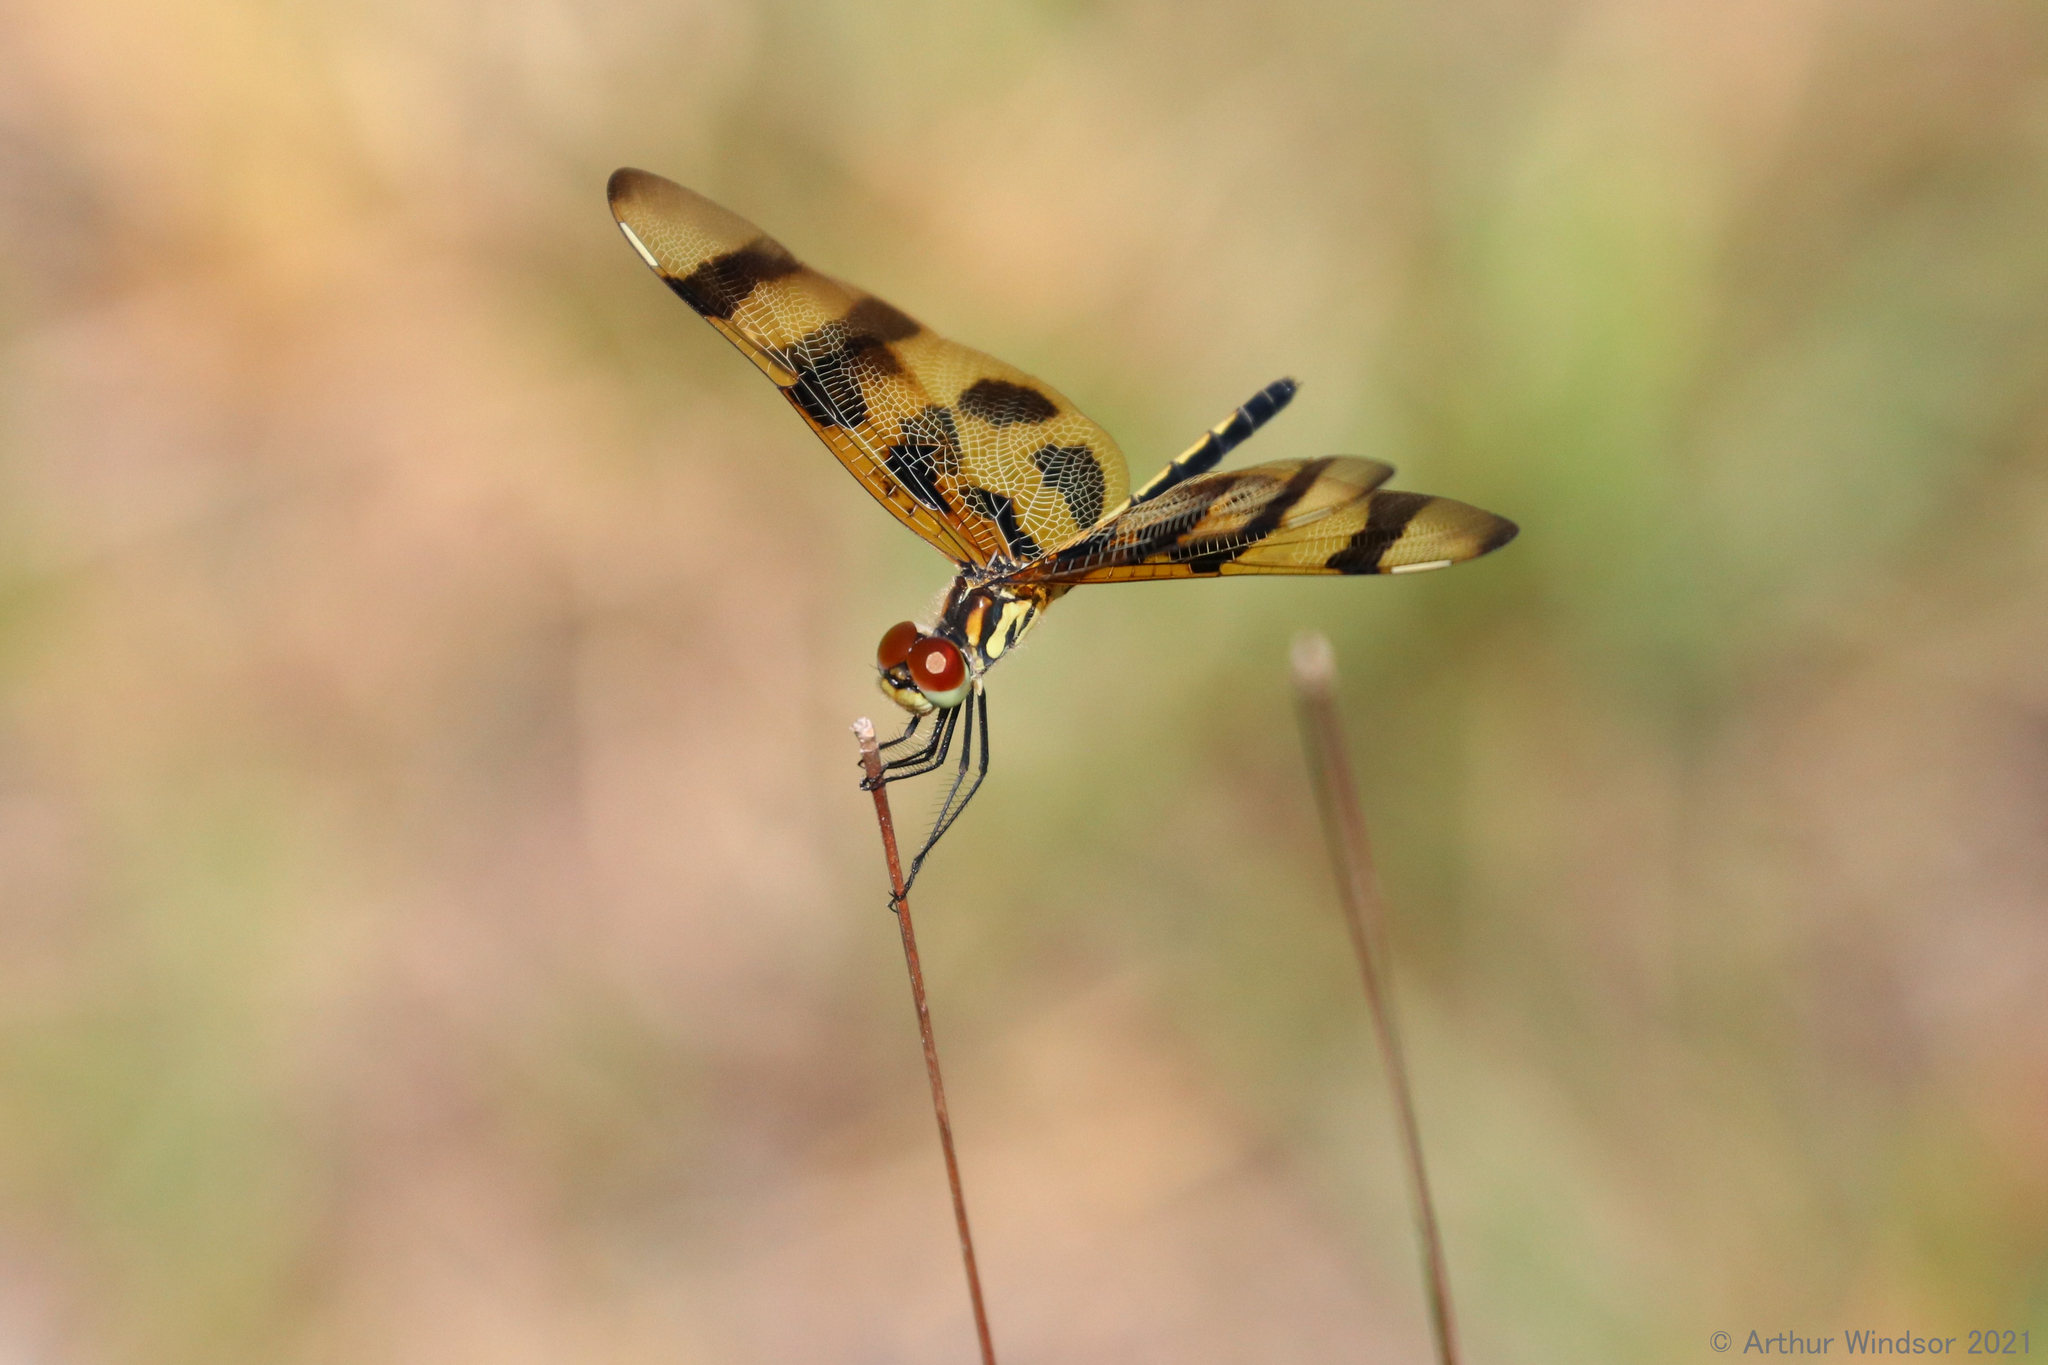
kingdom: Animalia
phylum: Arthropoda
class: Insecta
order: Odonata
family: Libellulidae
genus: Celithemis
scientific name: Celithemis eponina
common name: Halloween pennant
